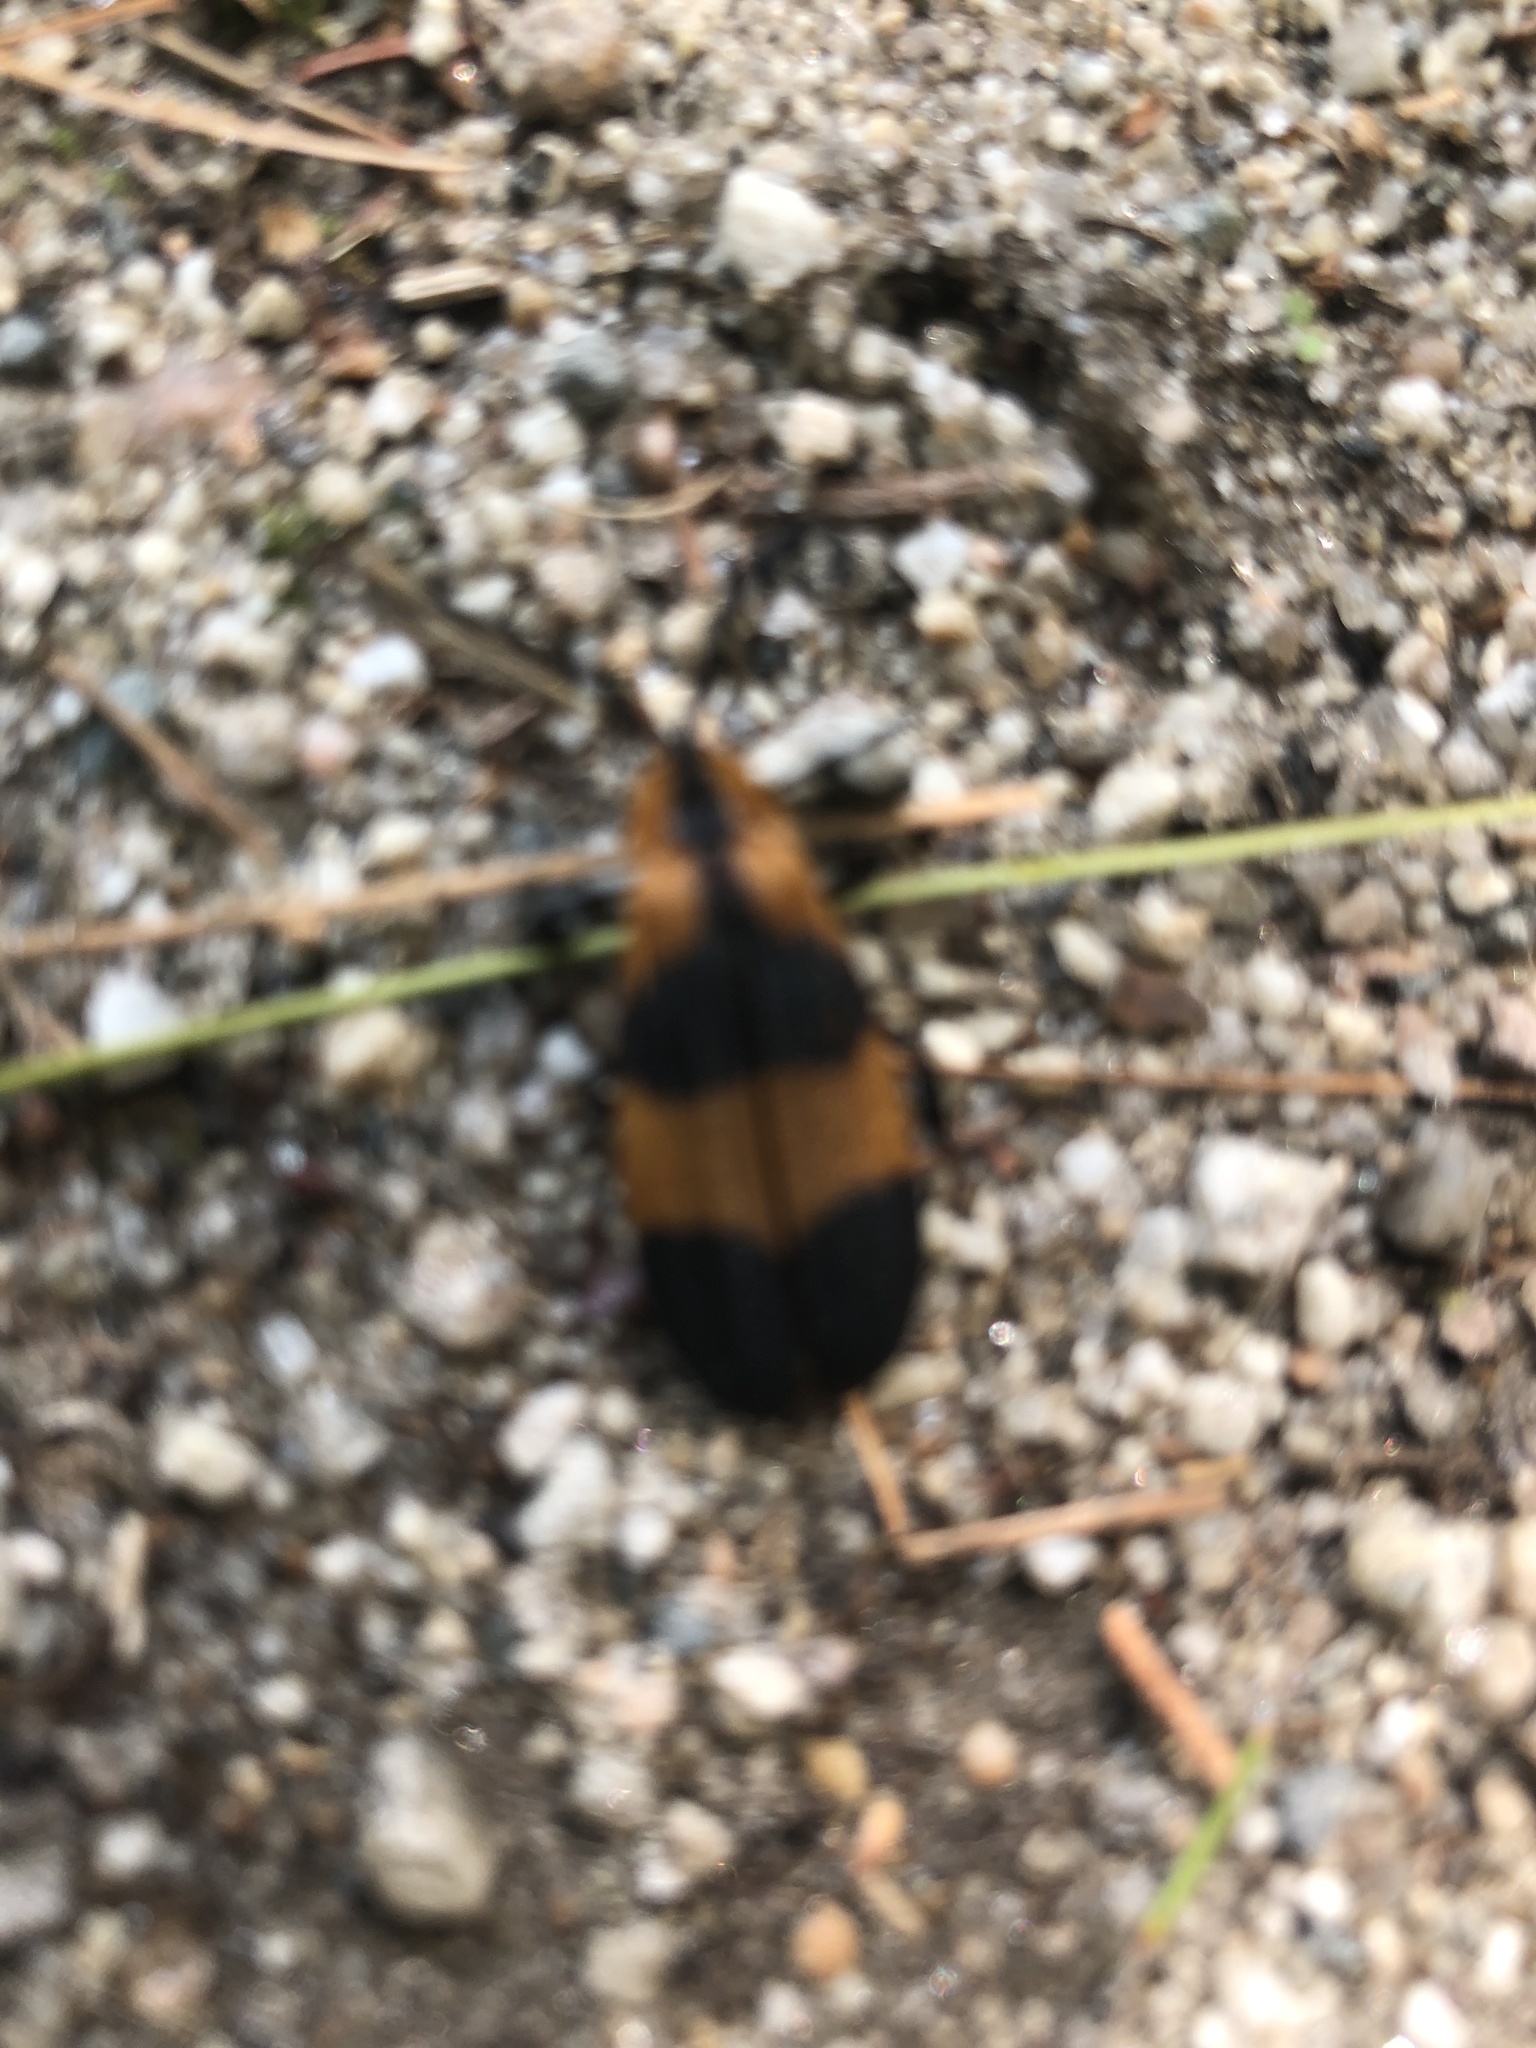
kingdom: Animalia
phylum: Arthropoda
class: Insecta
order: Coleoptera
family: Lycidae
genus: Calopteron
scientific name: Calopteron reticulatum
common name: Banded net-winged beetle
